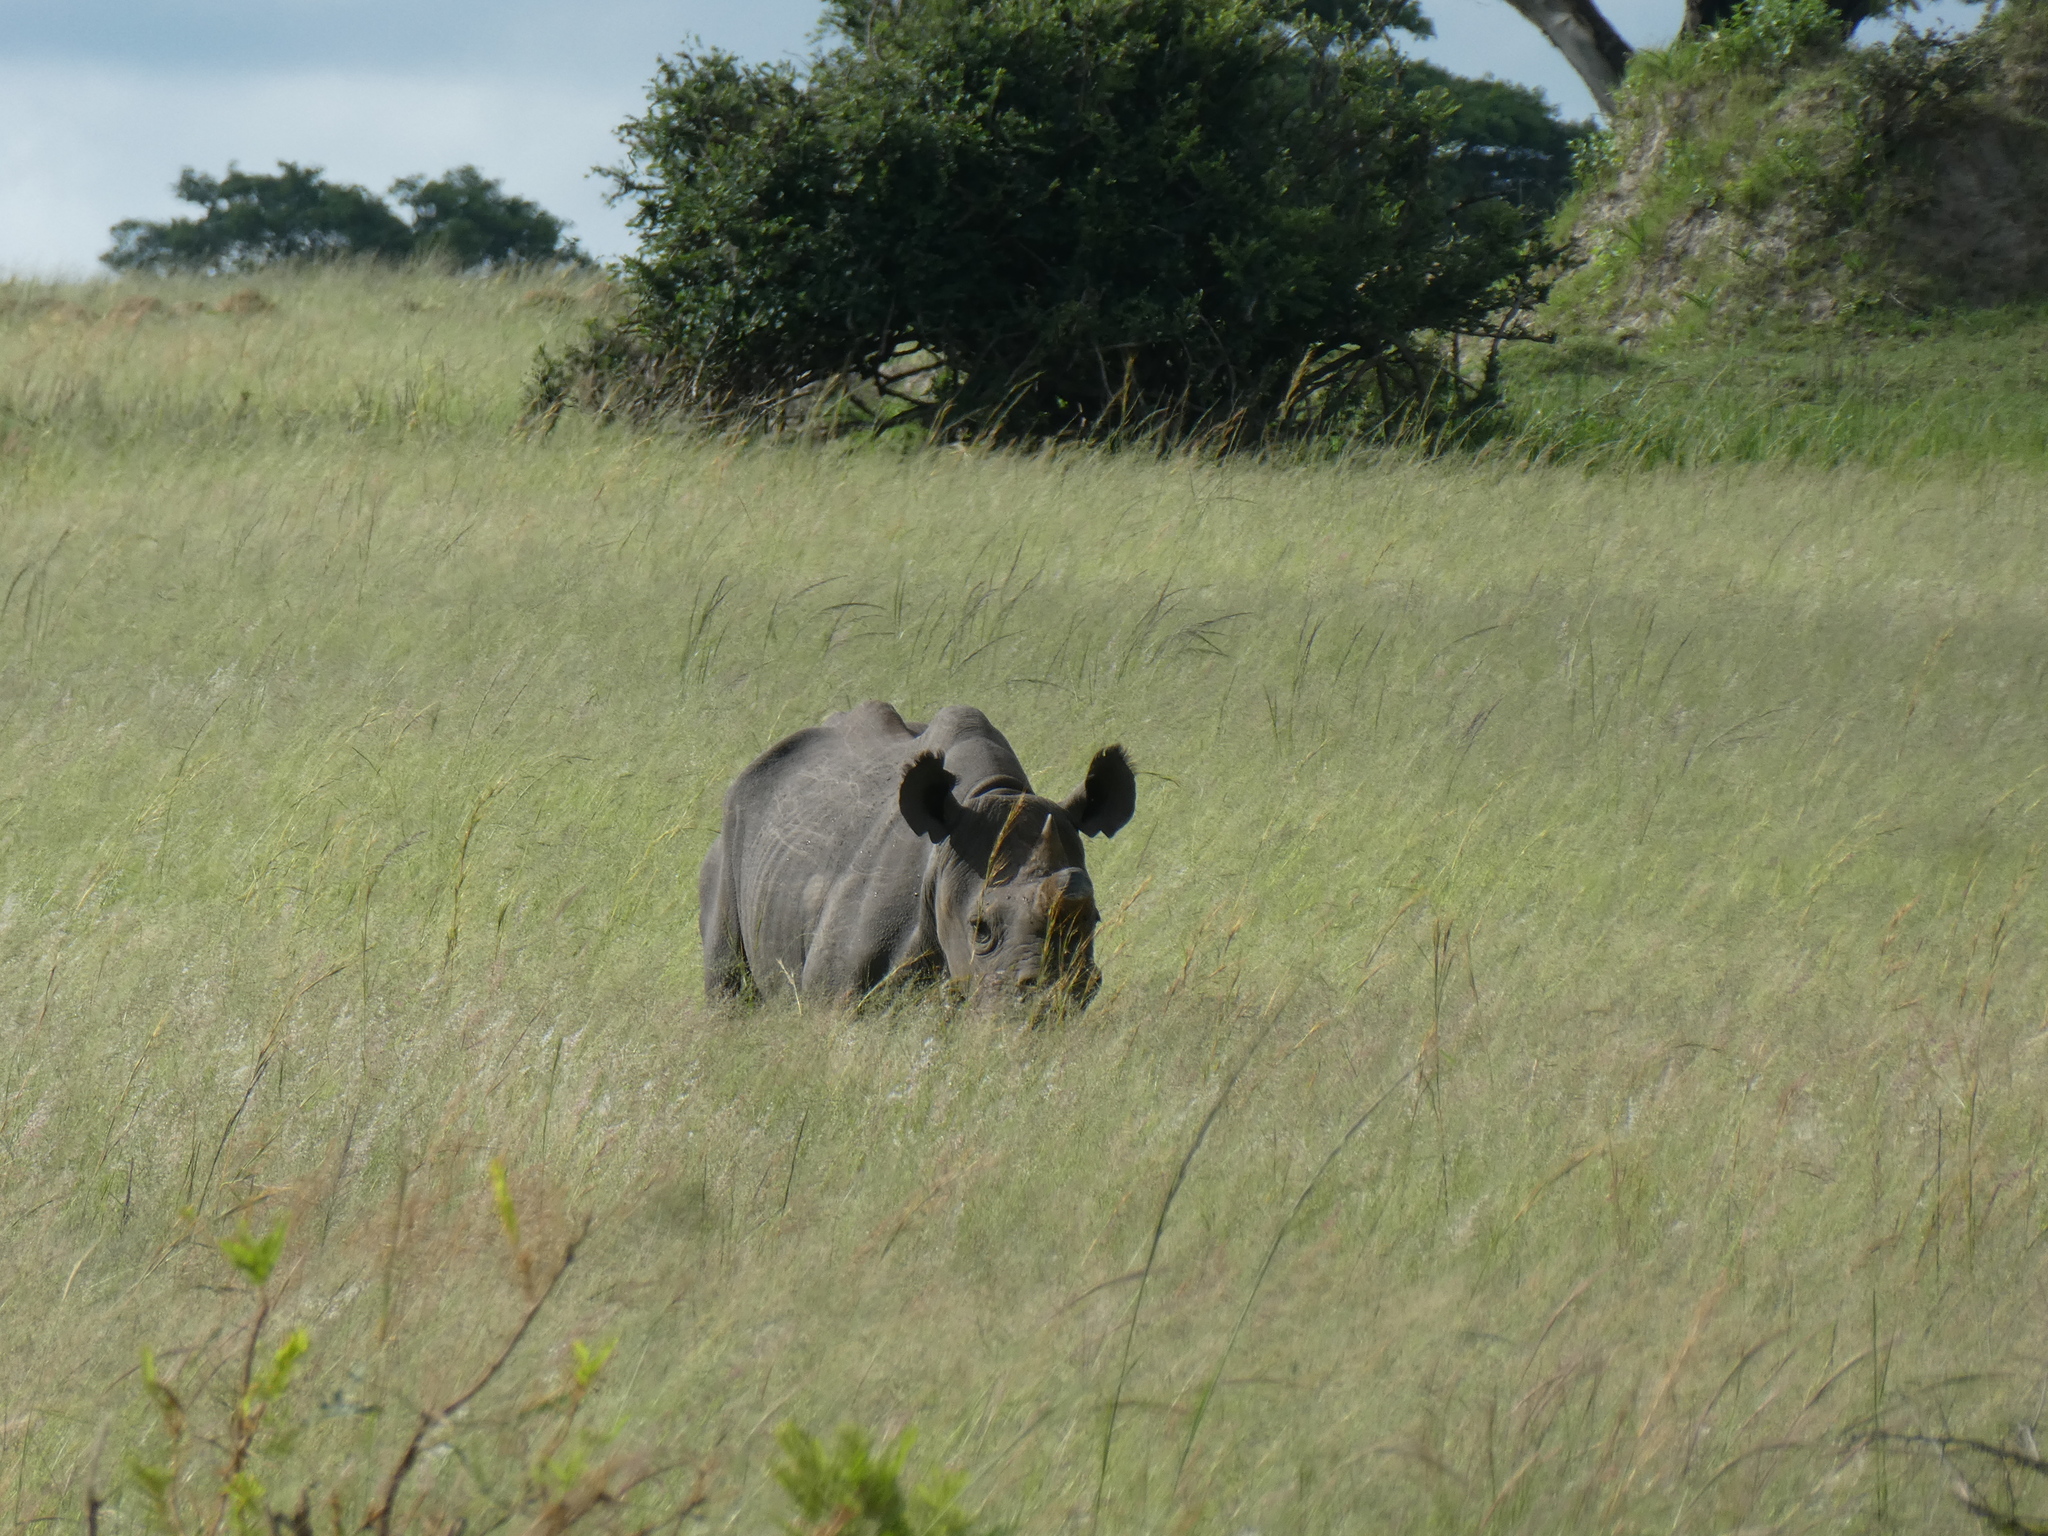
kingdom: Animalia
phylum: Chordata
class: Mammalia
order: Perissodactyla
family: Rhinocerotidae
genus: Diceros
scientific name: Diceros bicornis
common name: Black rhinoceros
